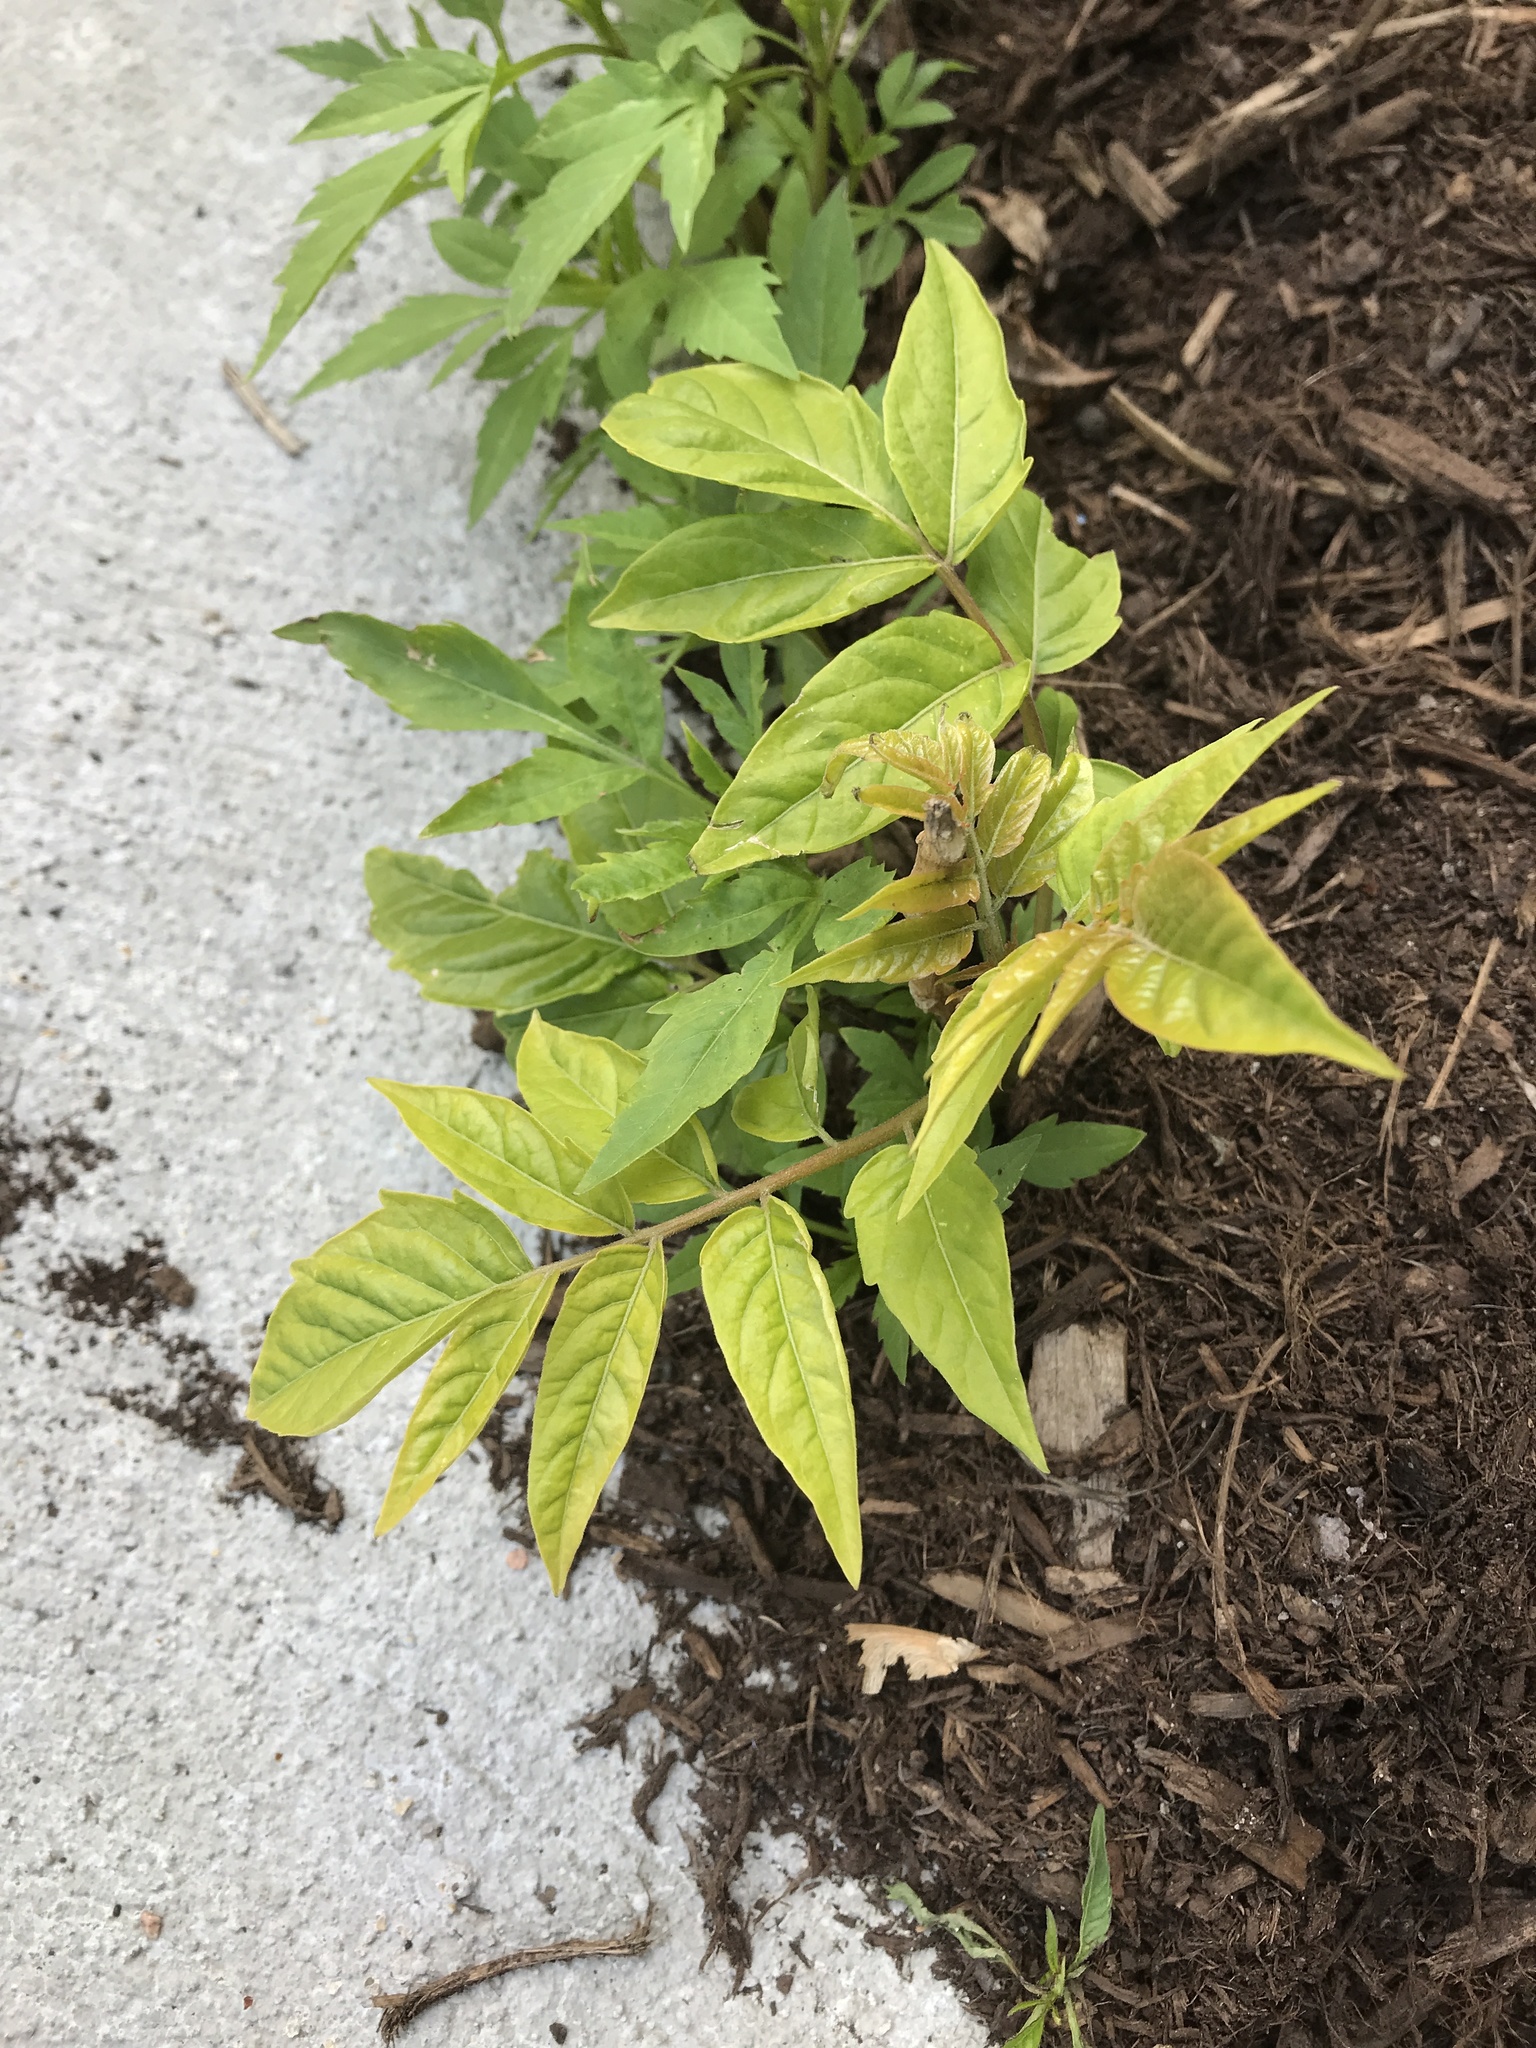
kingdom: Plantae
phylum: Tracheophyta
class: Magnoliopsida
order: Sapindales
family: Simaroubaceae
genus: Ailanthus
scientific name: Ailanthus altissima
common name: Tree-of-heaven
